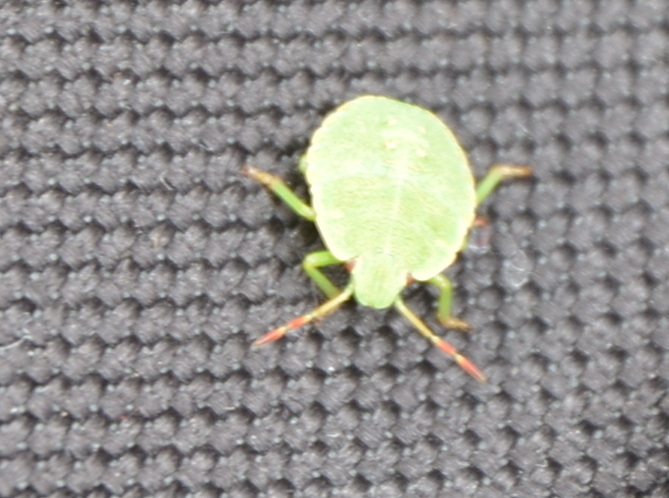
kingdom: Animalia
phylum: Arthropoda
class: Insecta
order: Hemiptera
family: Pentatomidae
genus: Palomena
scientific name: Palomena prasina
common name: Green shieldbug
